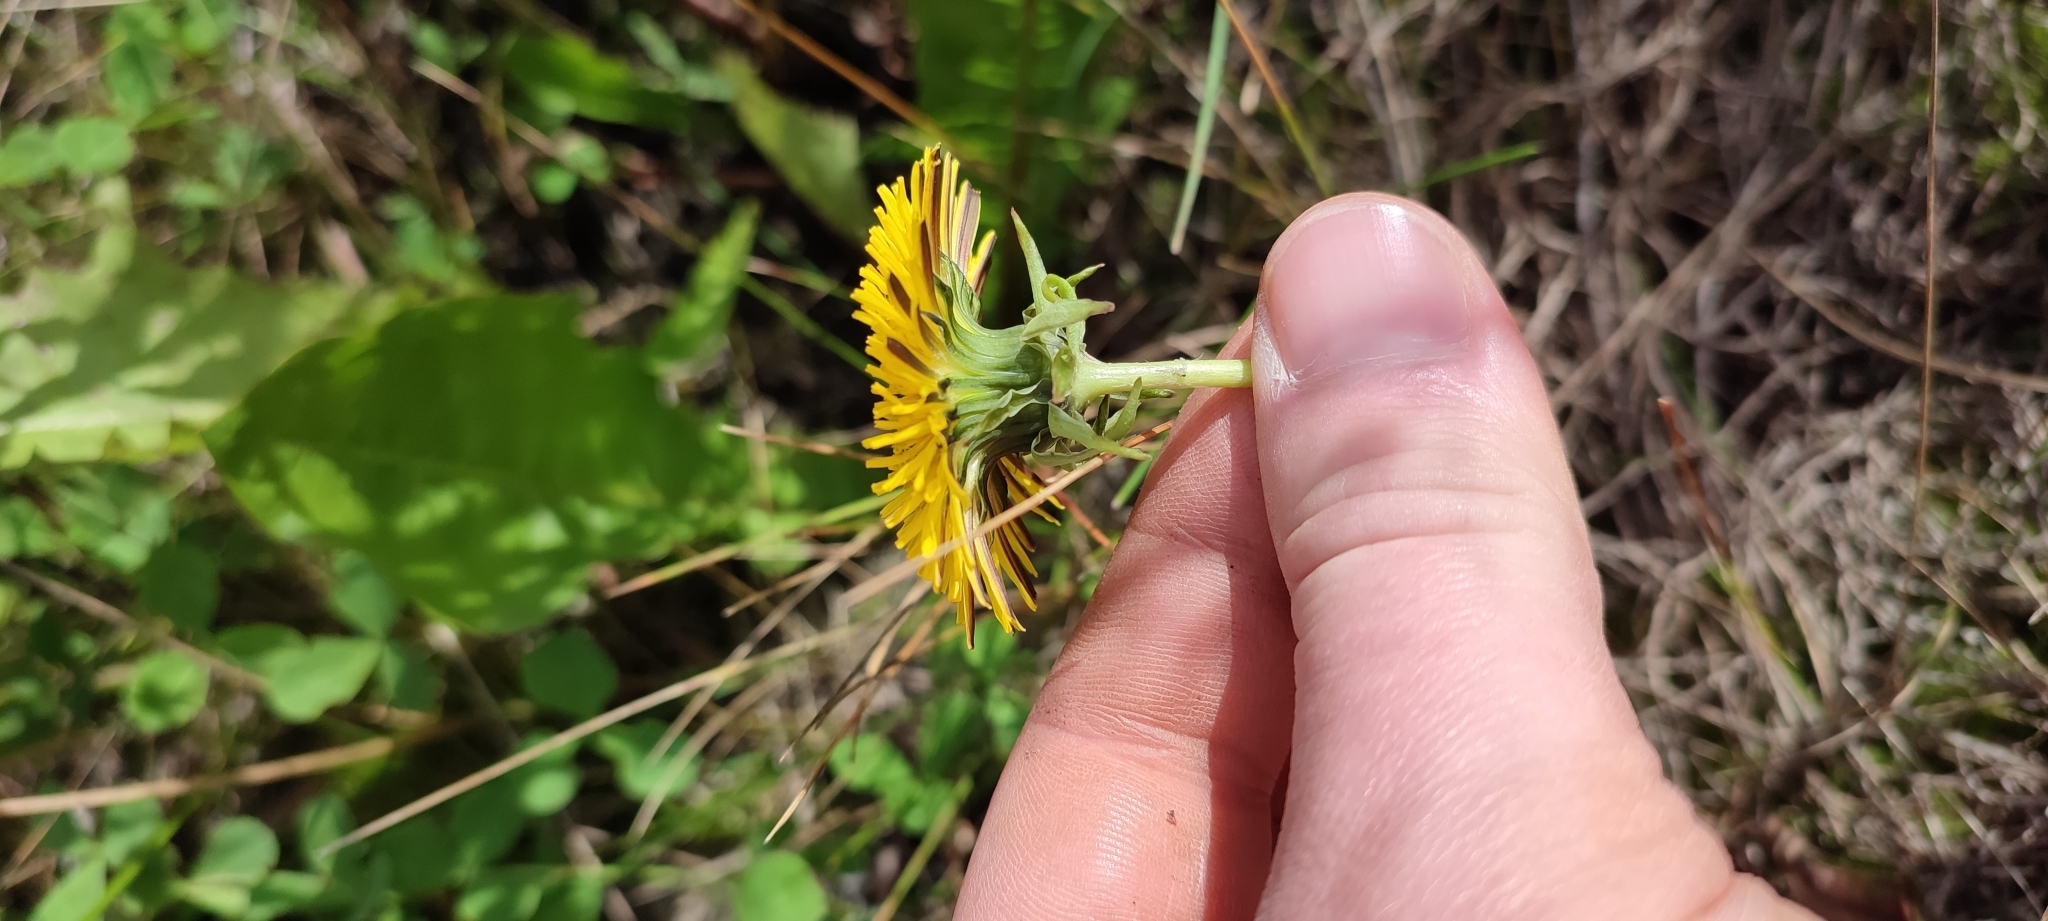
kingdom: Plantae
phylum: Tracheophyta
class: Magnoliopsida
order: Asterales
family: Asteraceae
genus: Taraxacum
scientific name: Taraxacum ceratophorum
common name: Horn-bearing dandelion
